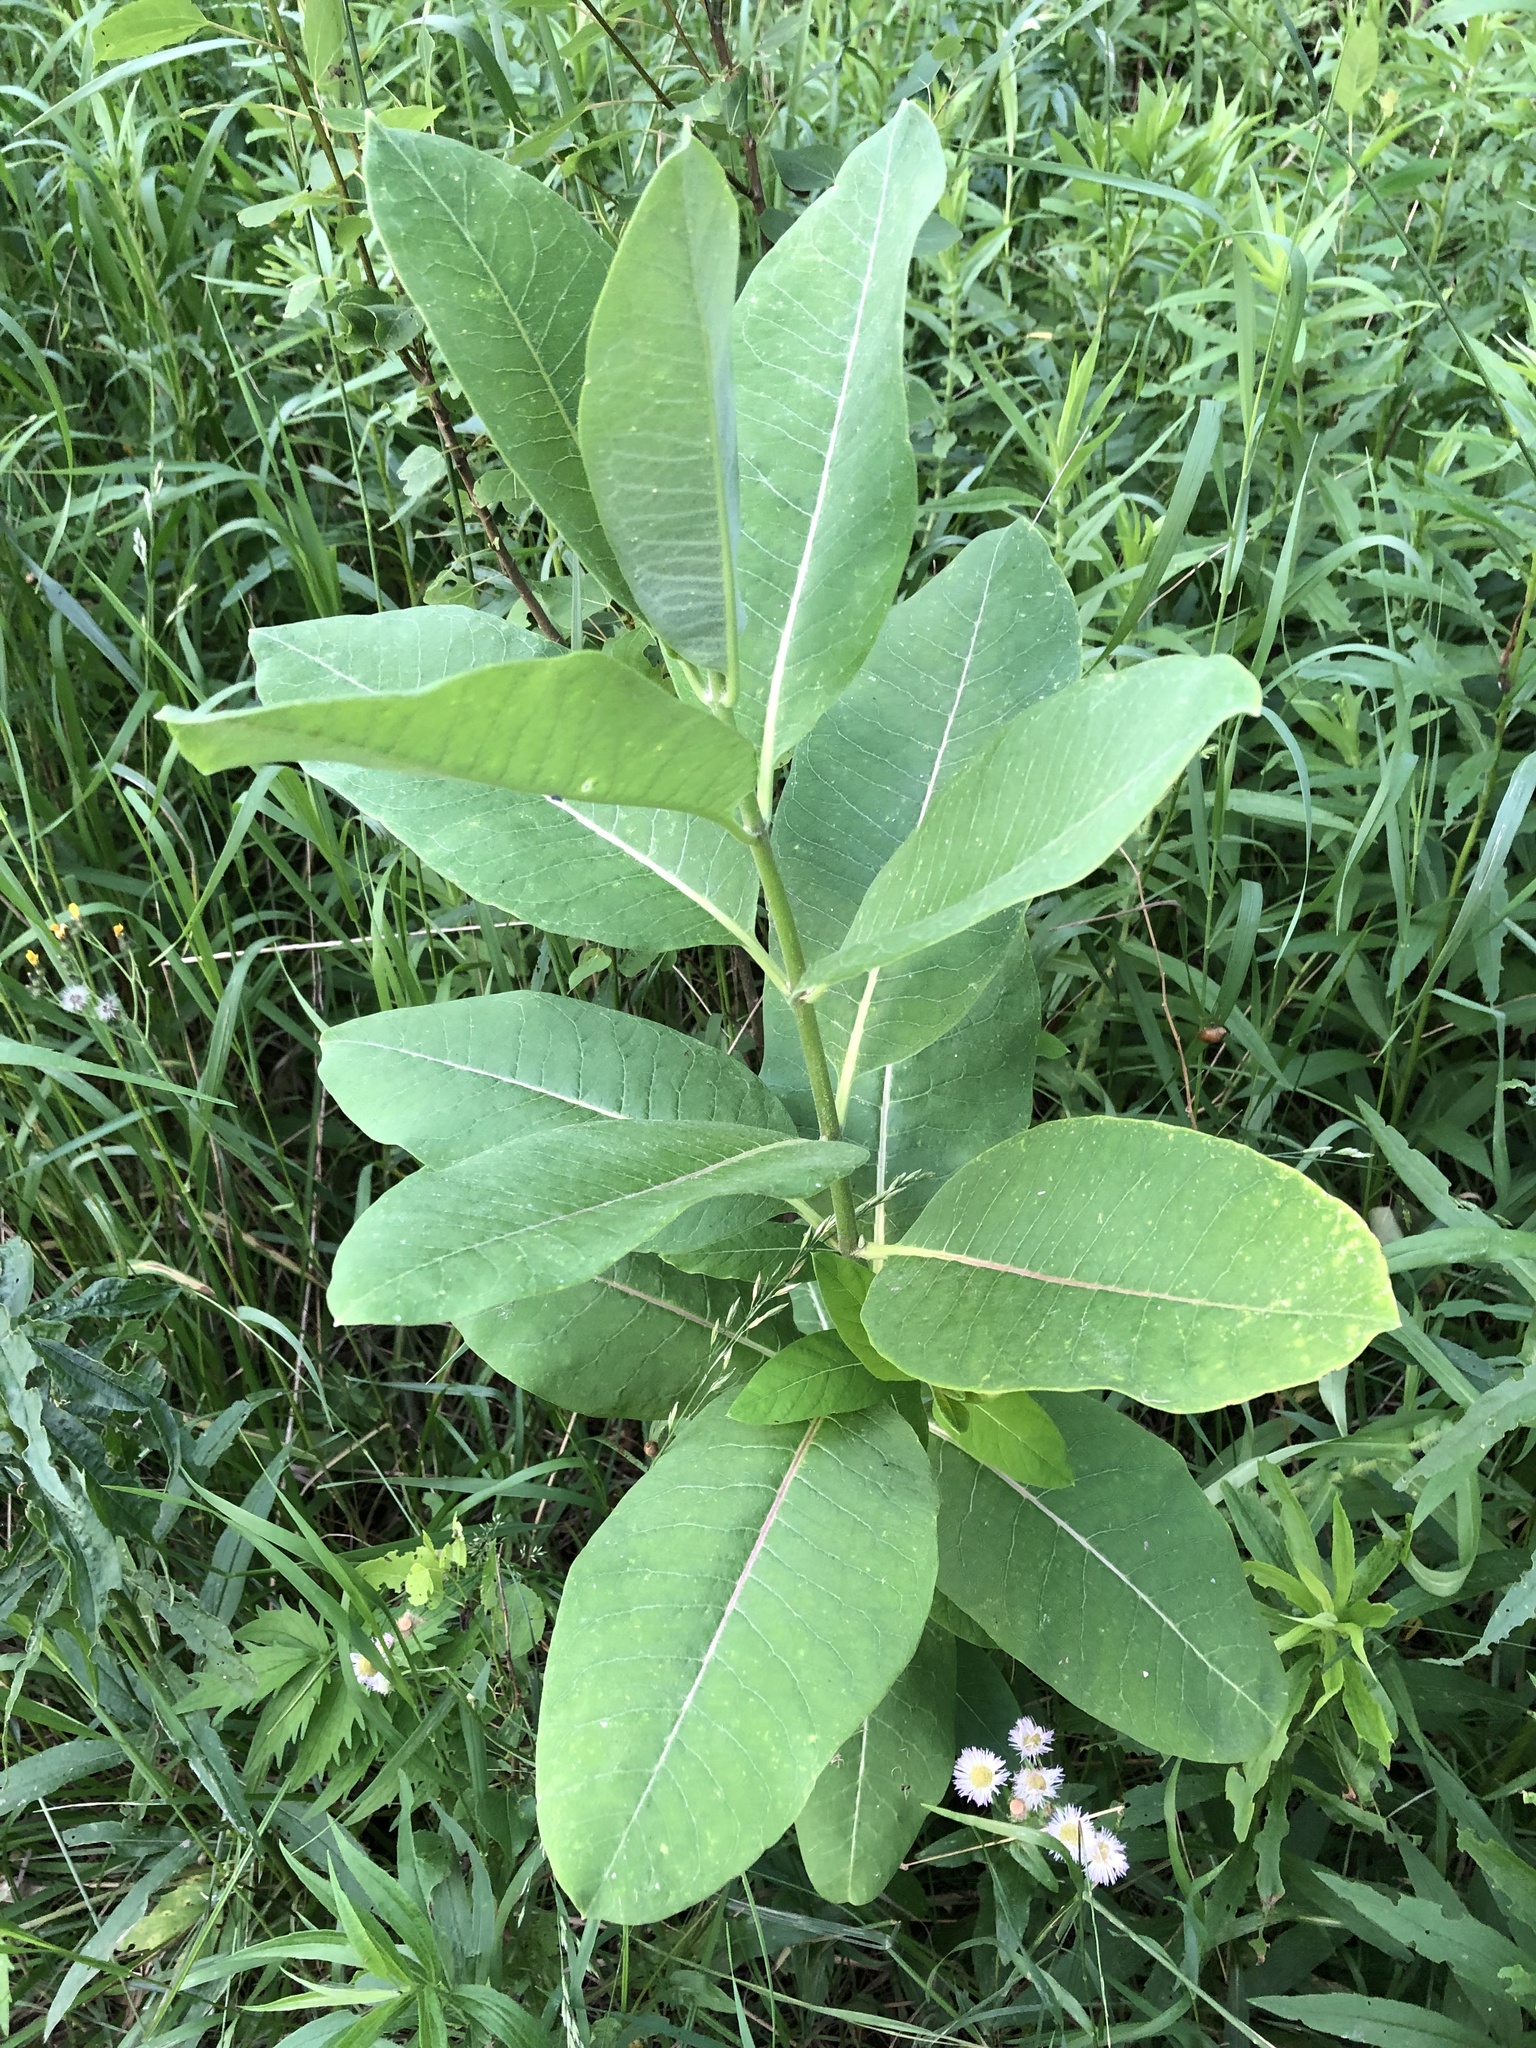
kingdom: Plantae
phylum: Tracheophyta
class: Magnoliopsida
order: Gentianales
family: Apocynaceae
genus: Asclepias
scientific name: Asclepias syriaca
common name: Common milkweed
